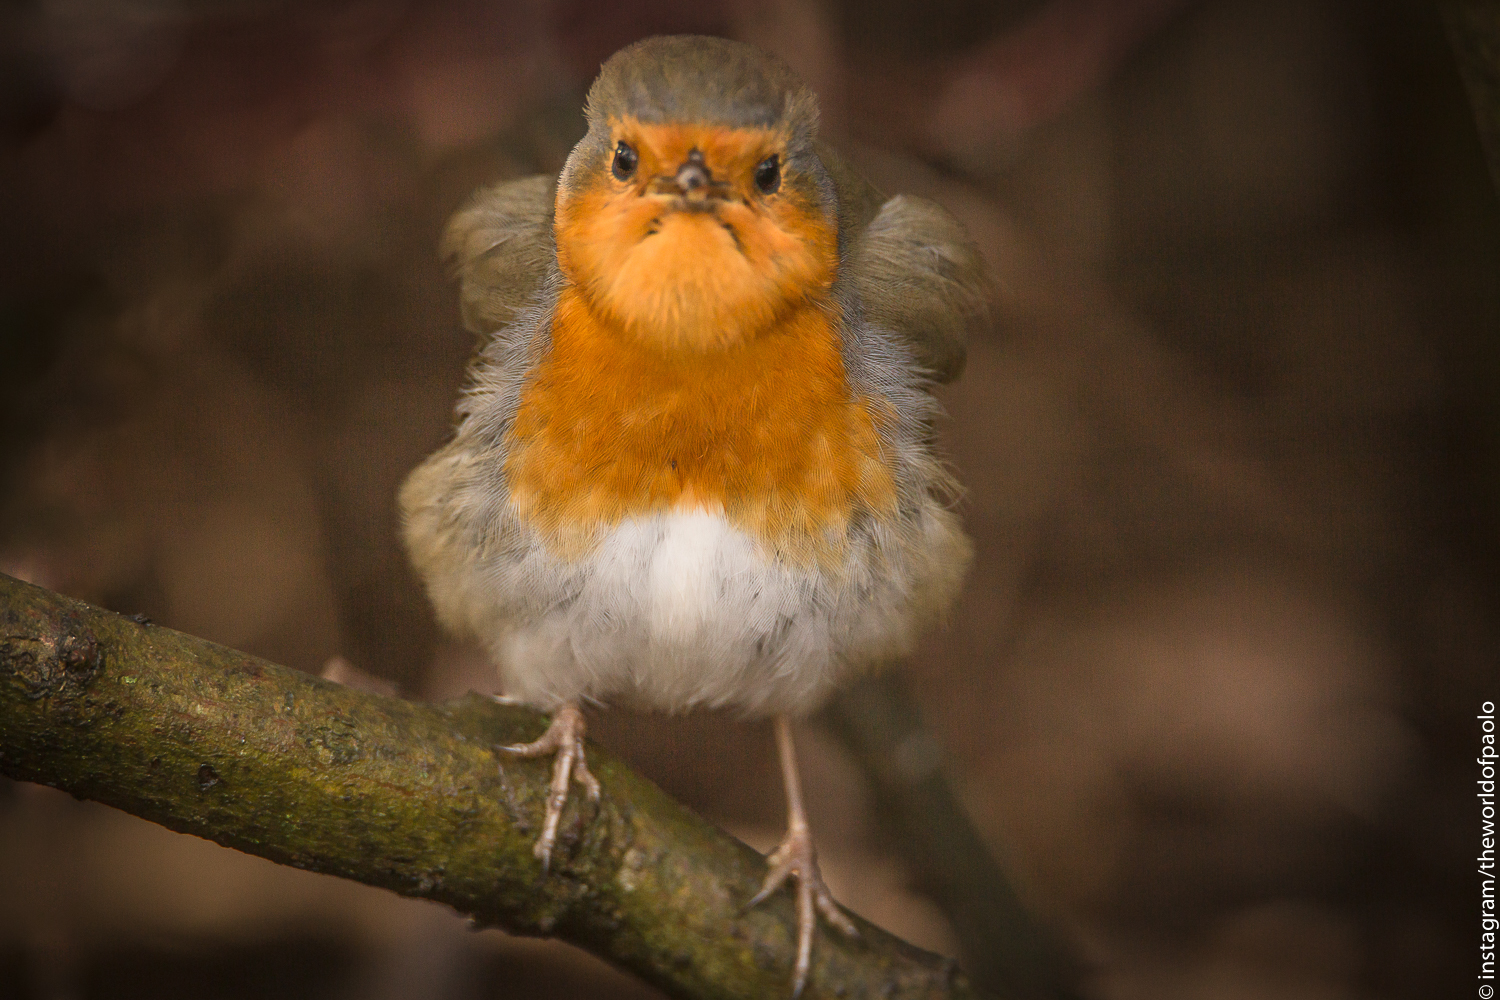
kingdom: Animalia
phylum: Chordata
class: Aves
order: Passeriformes
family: Muscicapidae
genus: Erithacus
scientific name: Erithacus rubecula
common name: European robin
